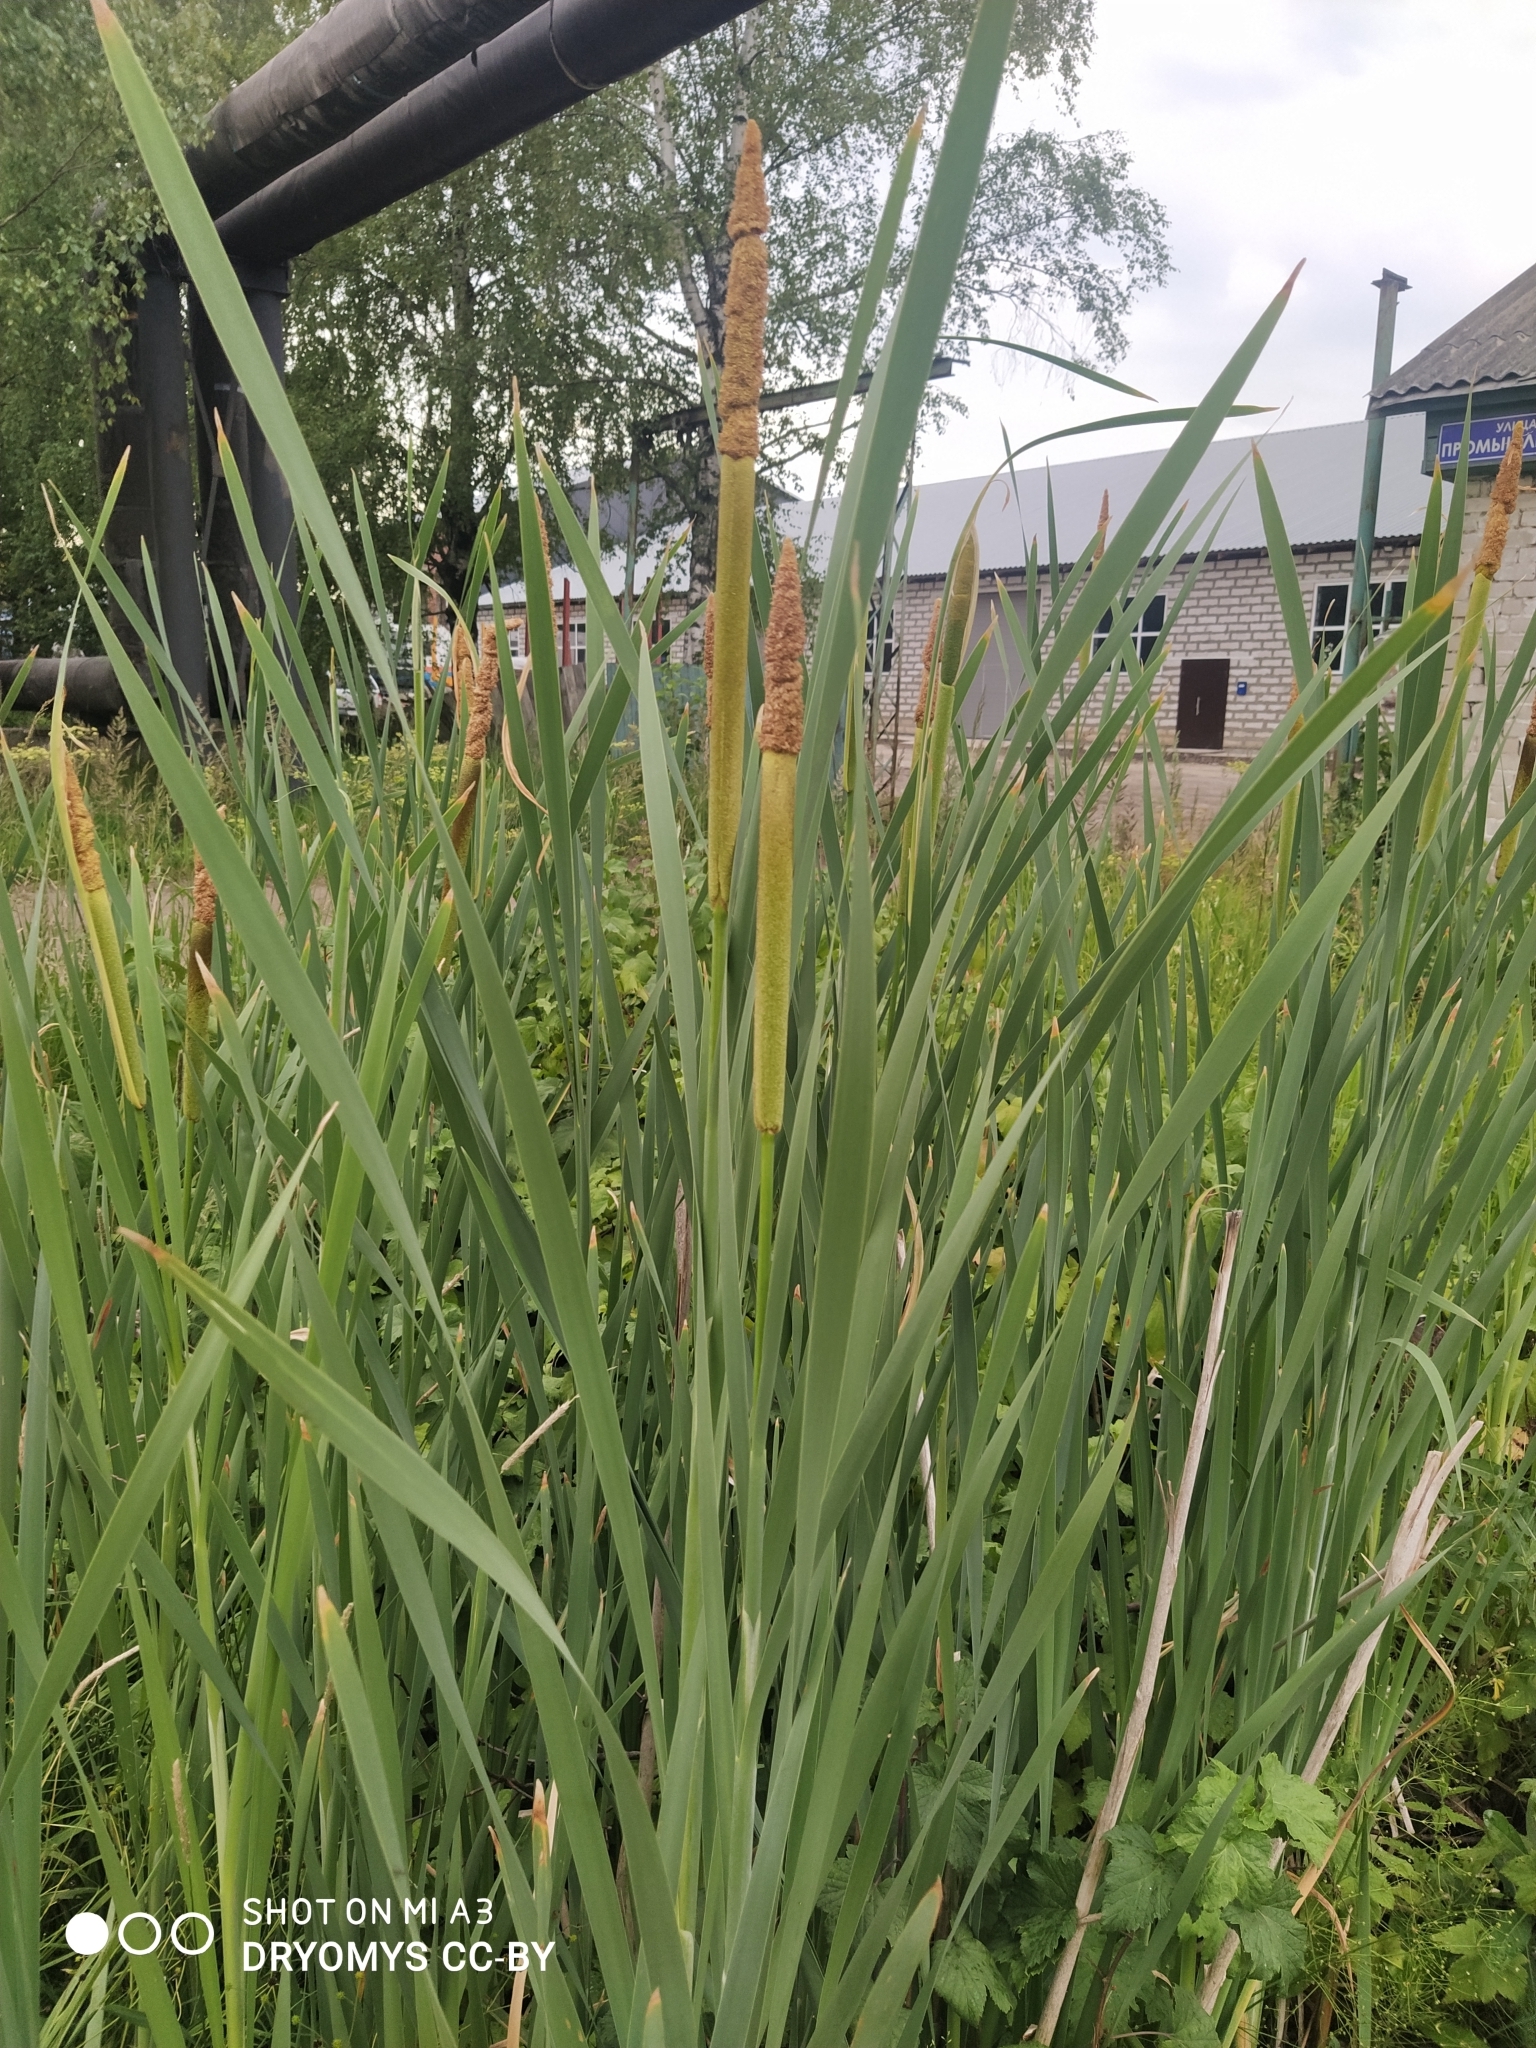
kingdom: Plantae
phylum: Tracheophyta
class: Liliopsida
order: Poales
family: Typhaceae
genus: Typha
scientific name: Typha latifolia
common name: Broadleaf cattail
